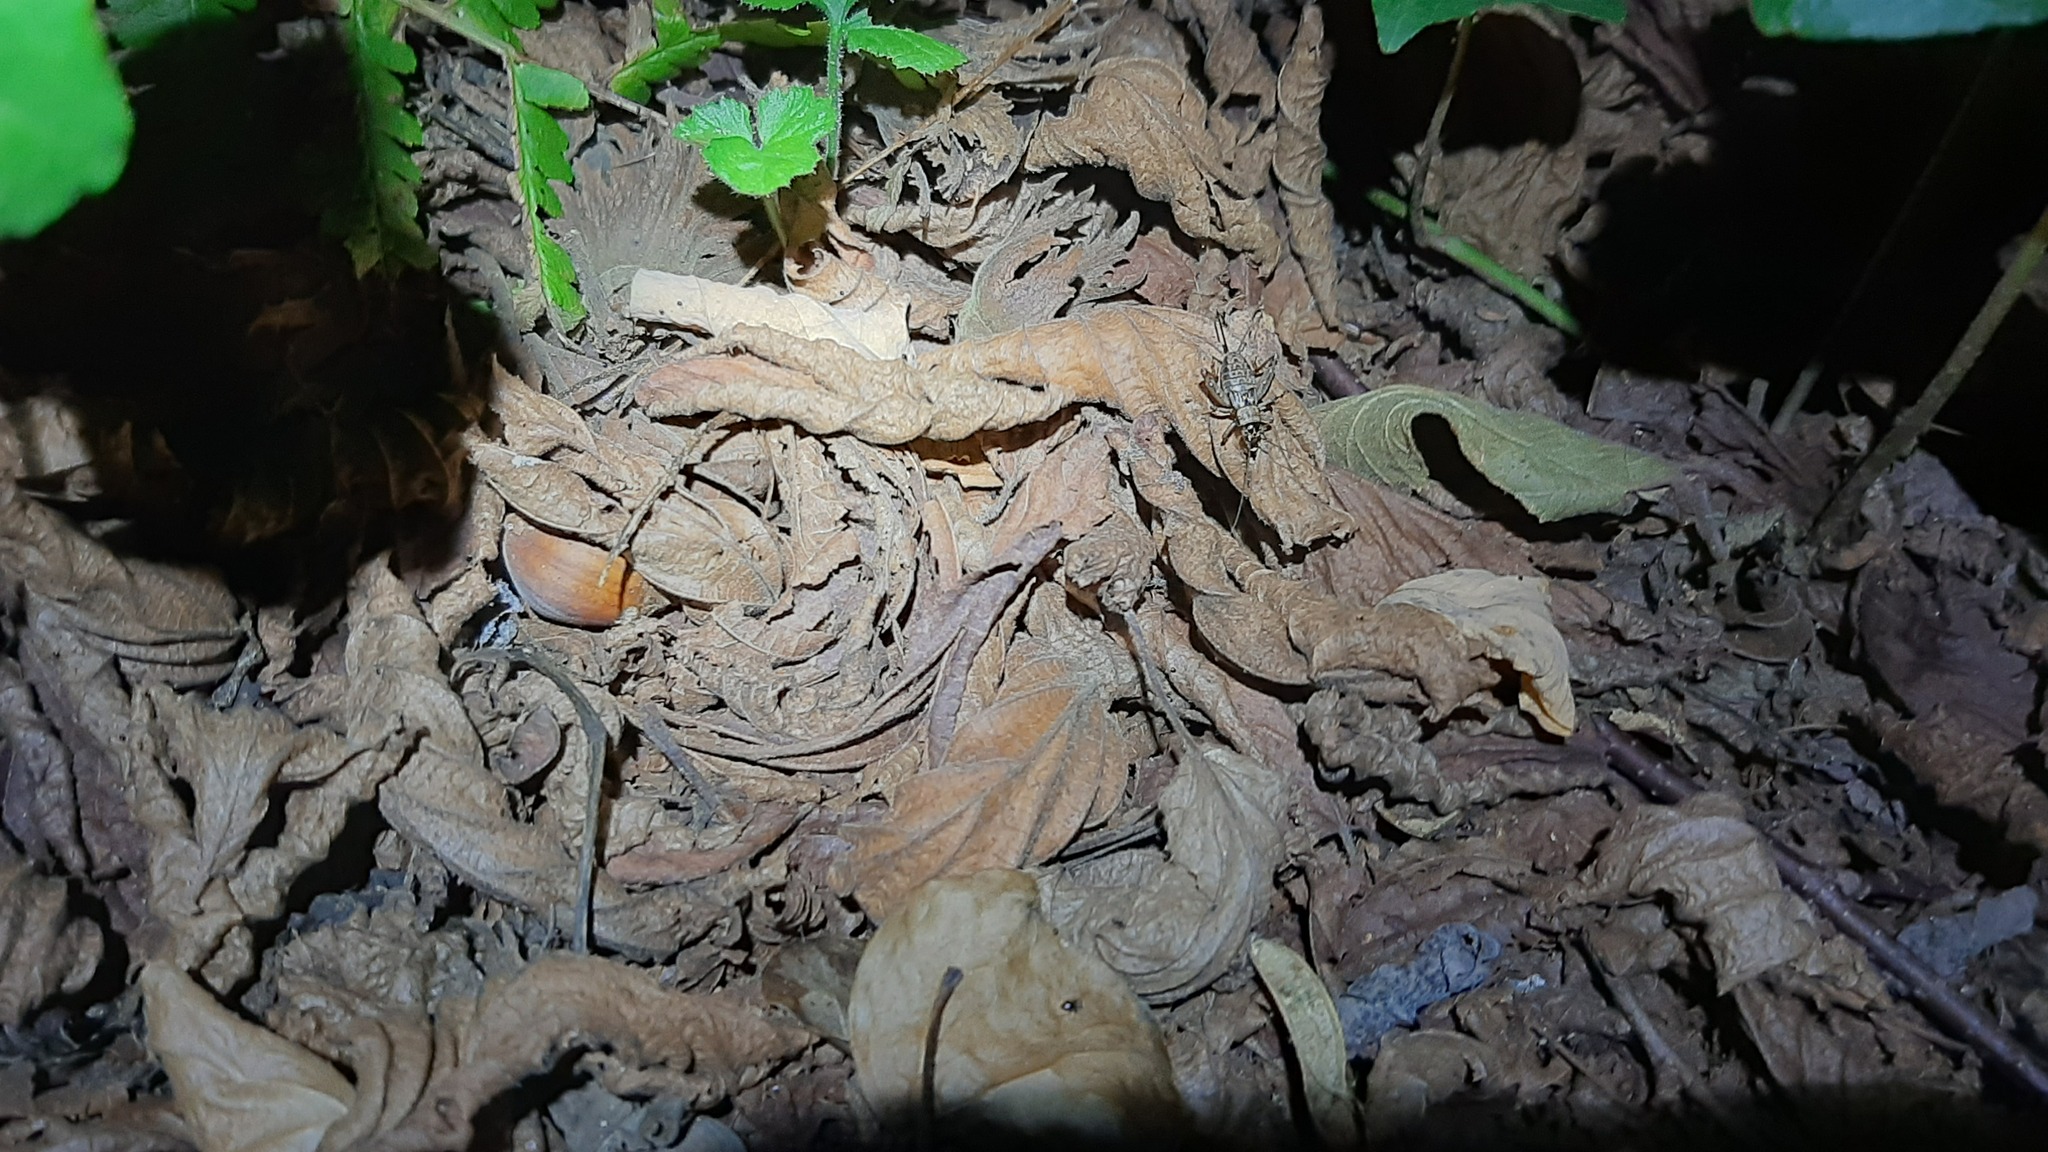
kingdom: Animalia
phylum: Arthropoda
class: Insecta
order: Orthoptera
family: Trigonidiidae
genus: Nemobius
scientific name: Nemobius sylvestris
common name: Wood-cricket
